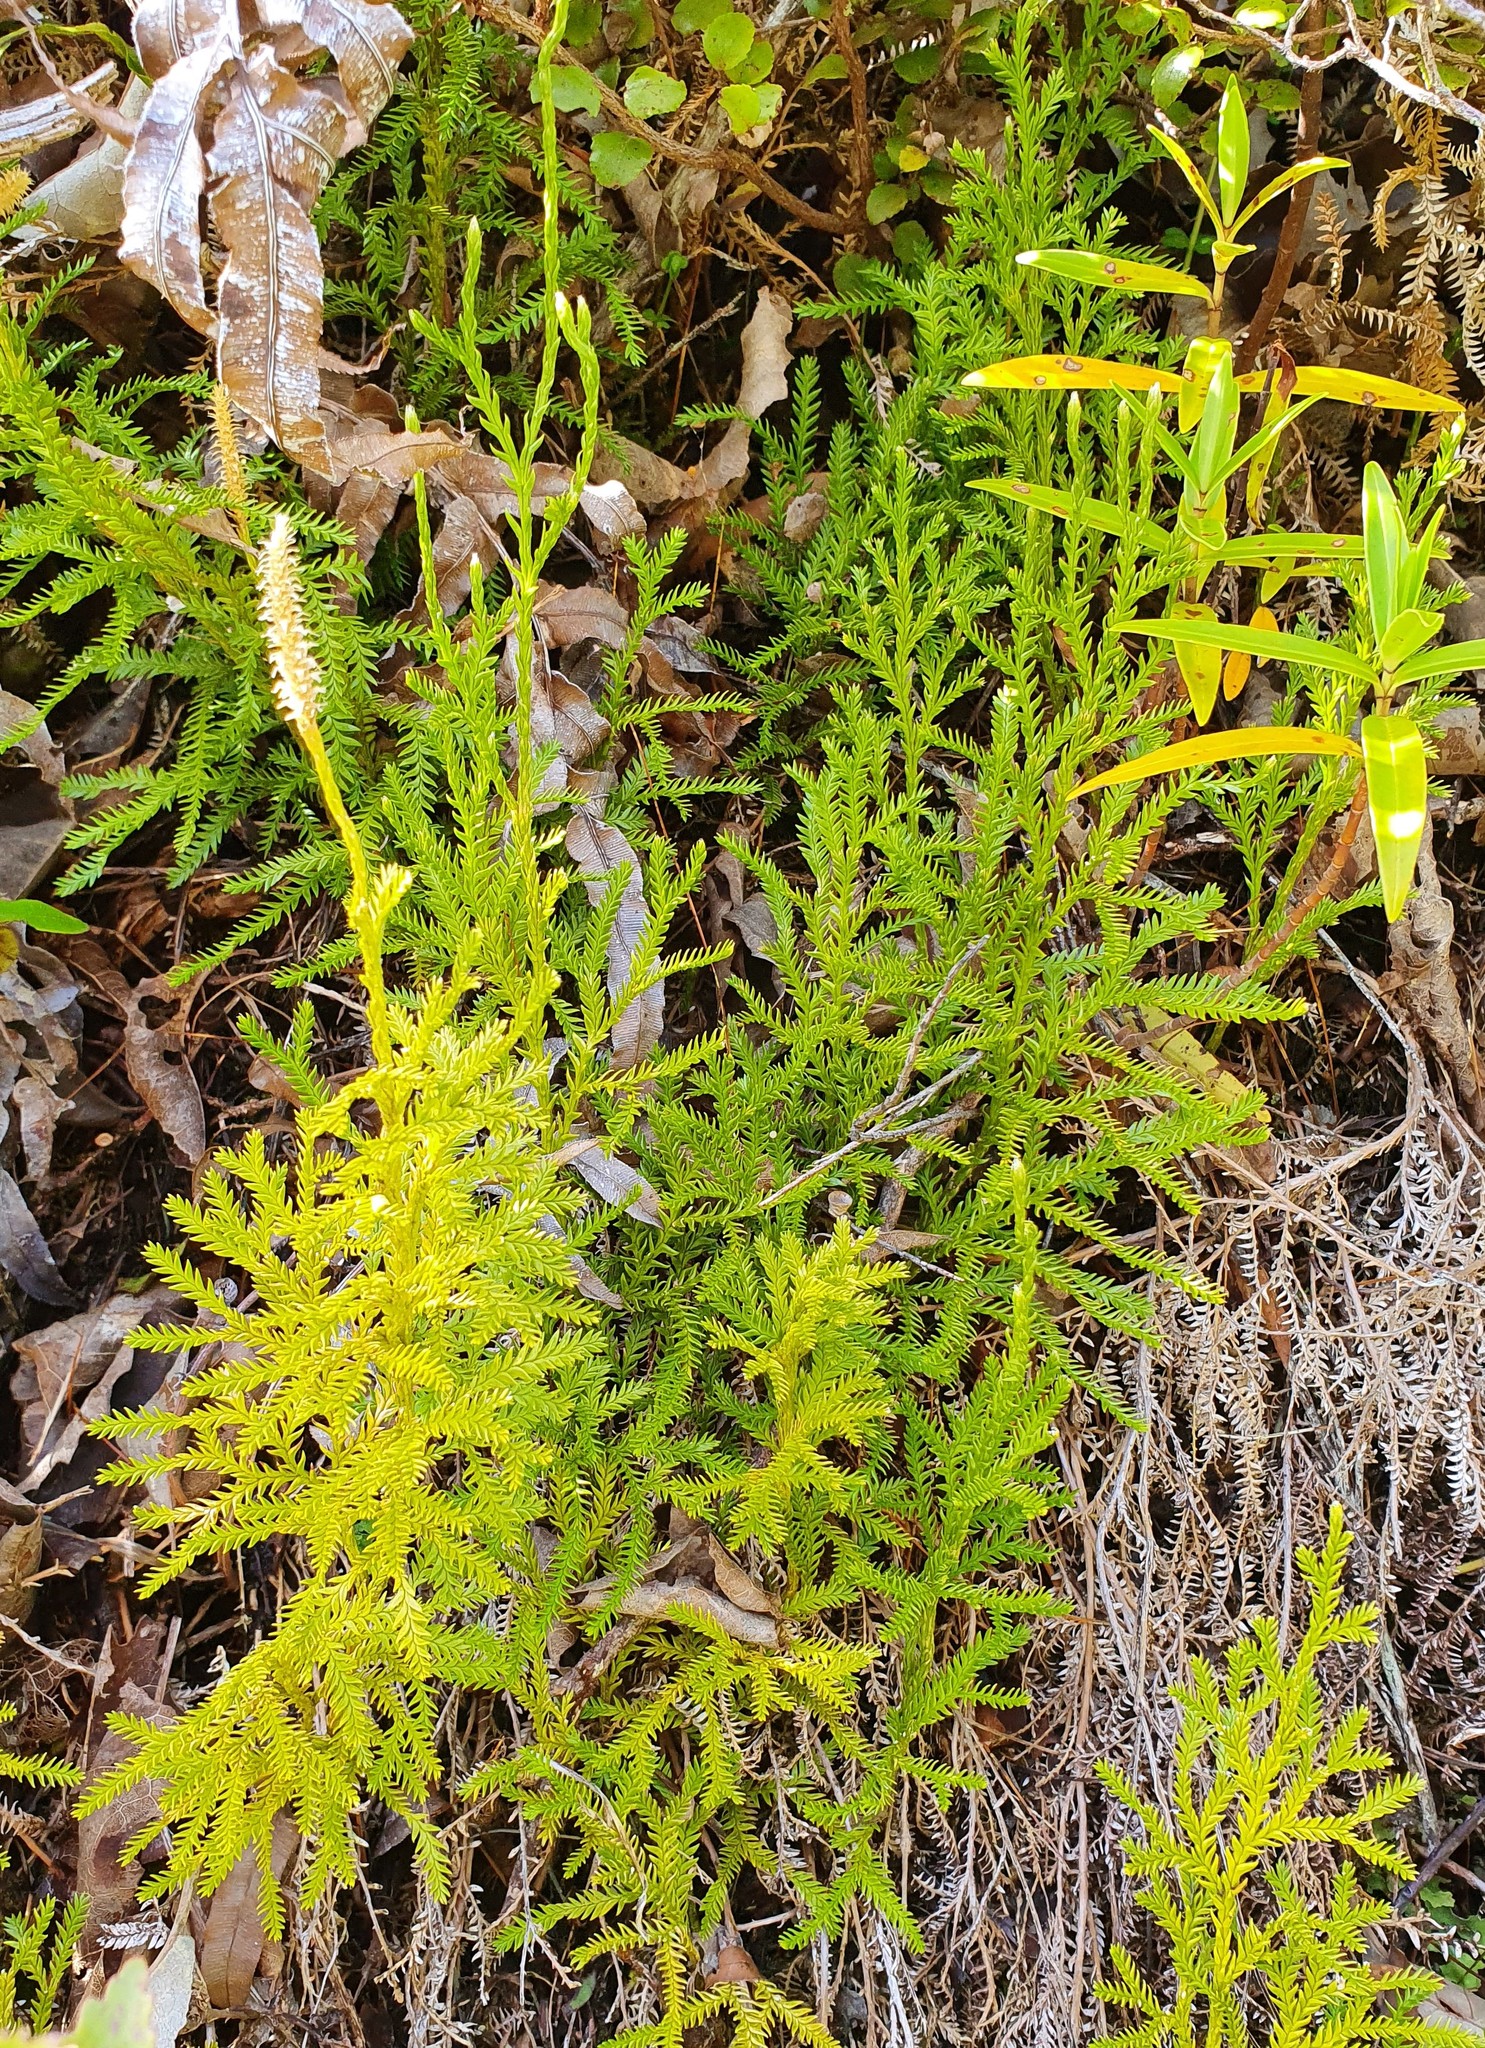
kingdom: Plantae
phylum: Tracheophyta
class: Lycopodiopsida
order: Lycopodiales
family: Lycopodiaceae
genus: Diphasium
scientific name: Diphasium scariosum
